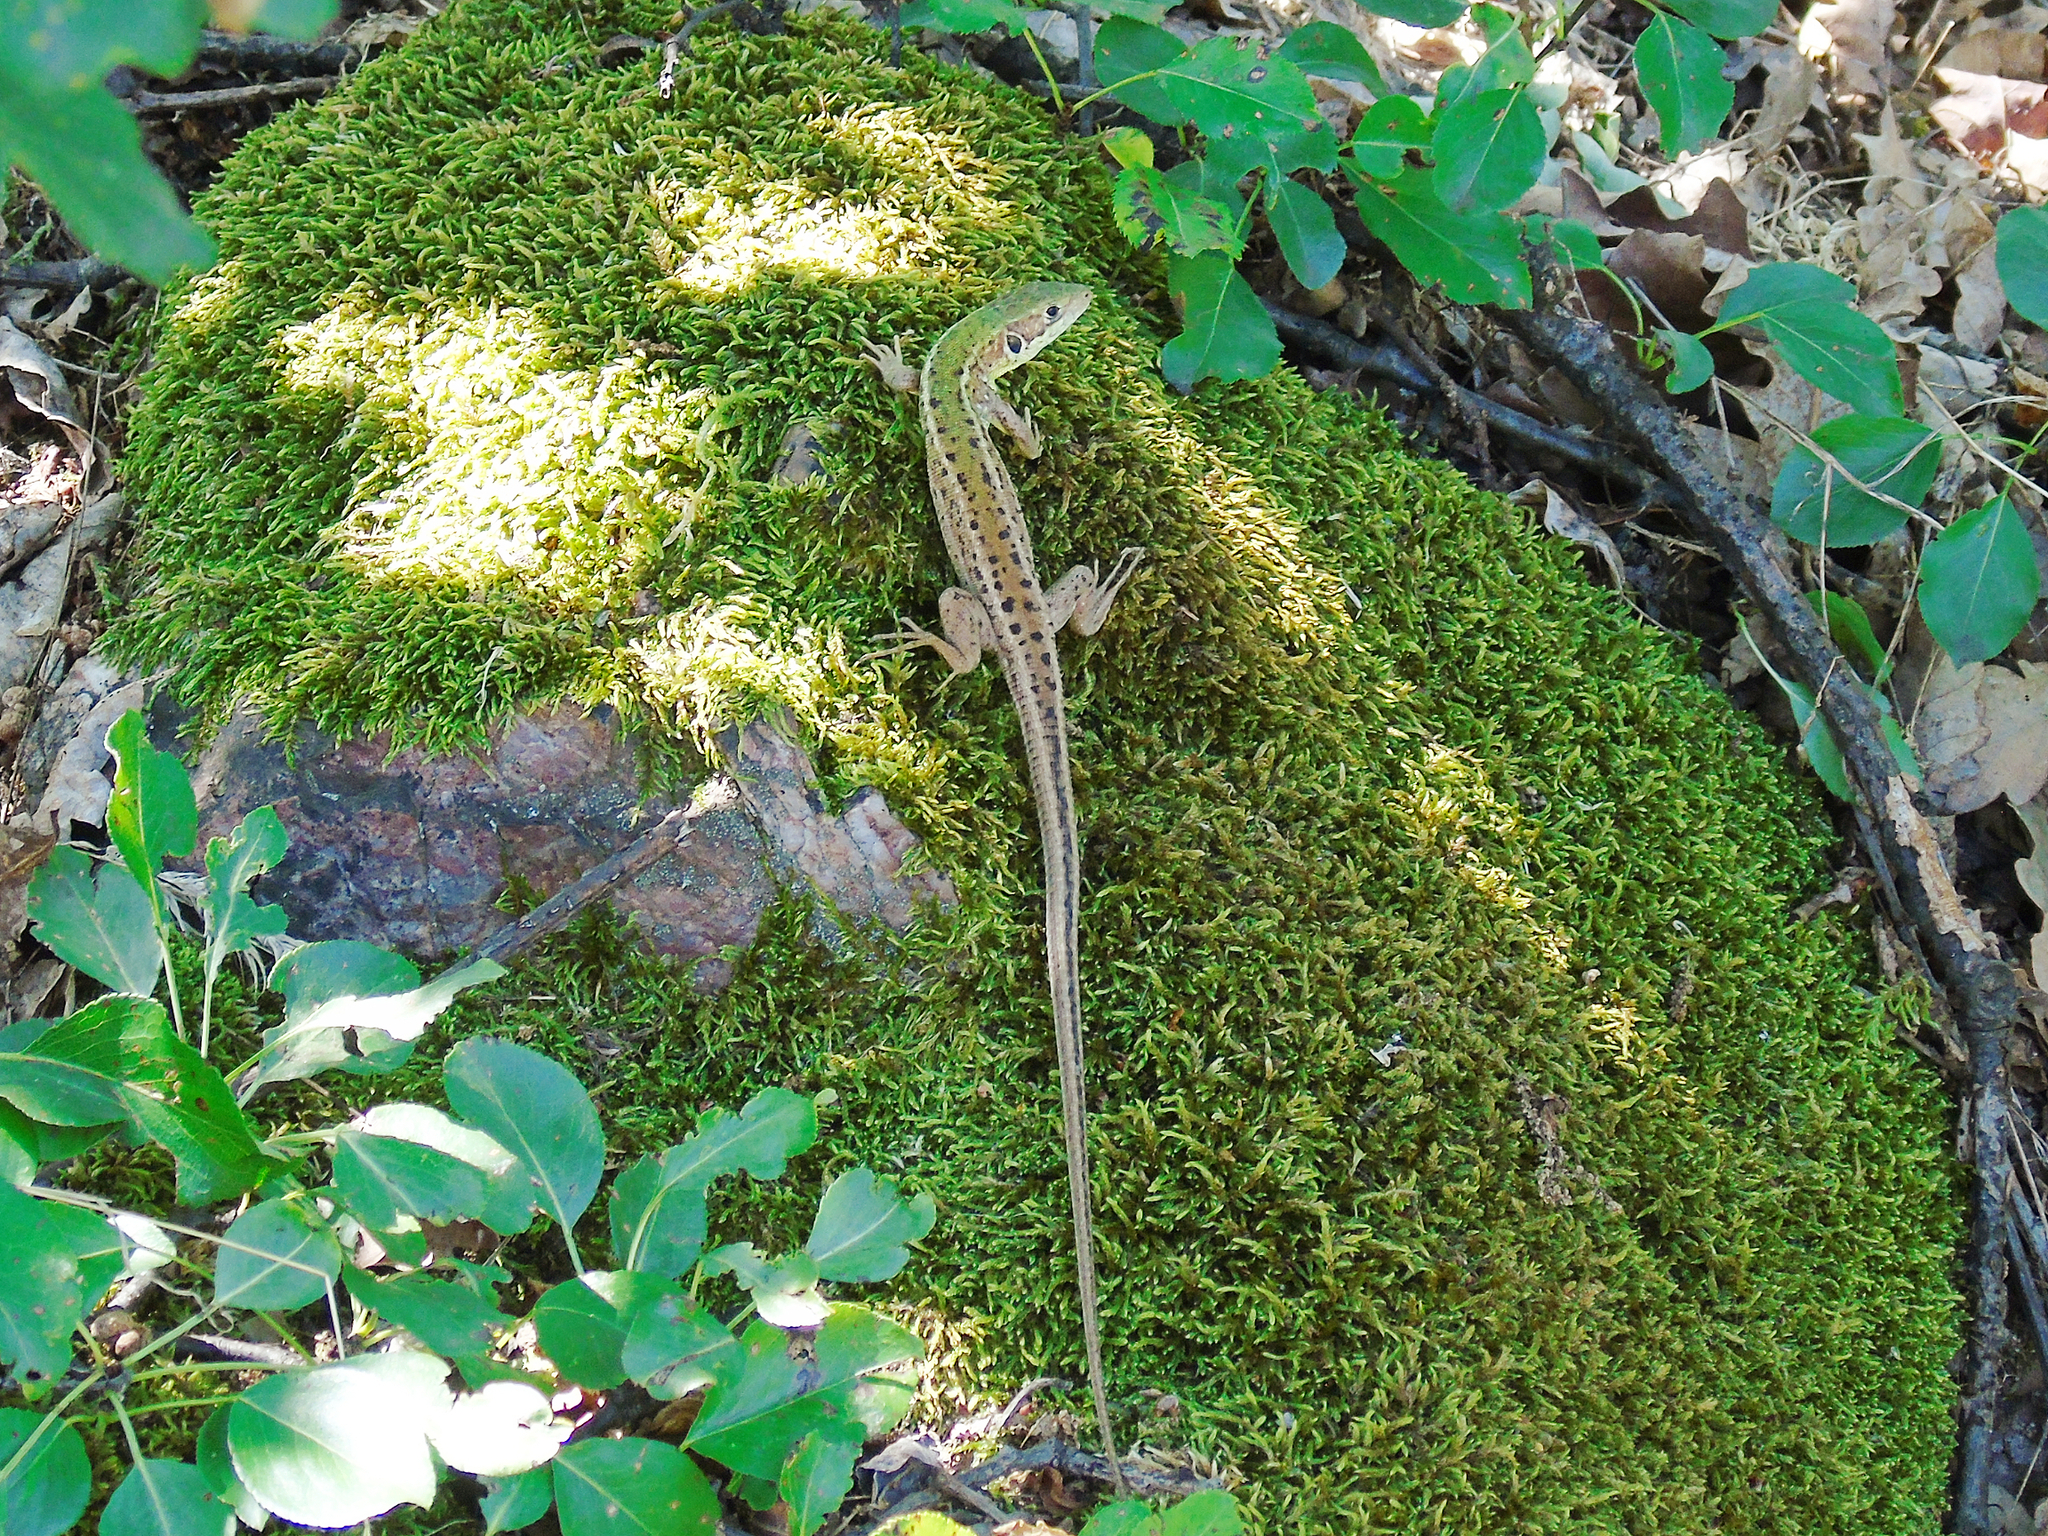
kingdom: Animalia
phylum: Chordata
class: Squamata
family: Lacertidae
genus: Lacerta
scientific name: Lacerta viridis
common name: European green lizard
